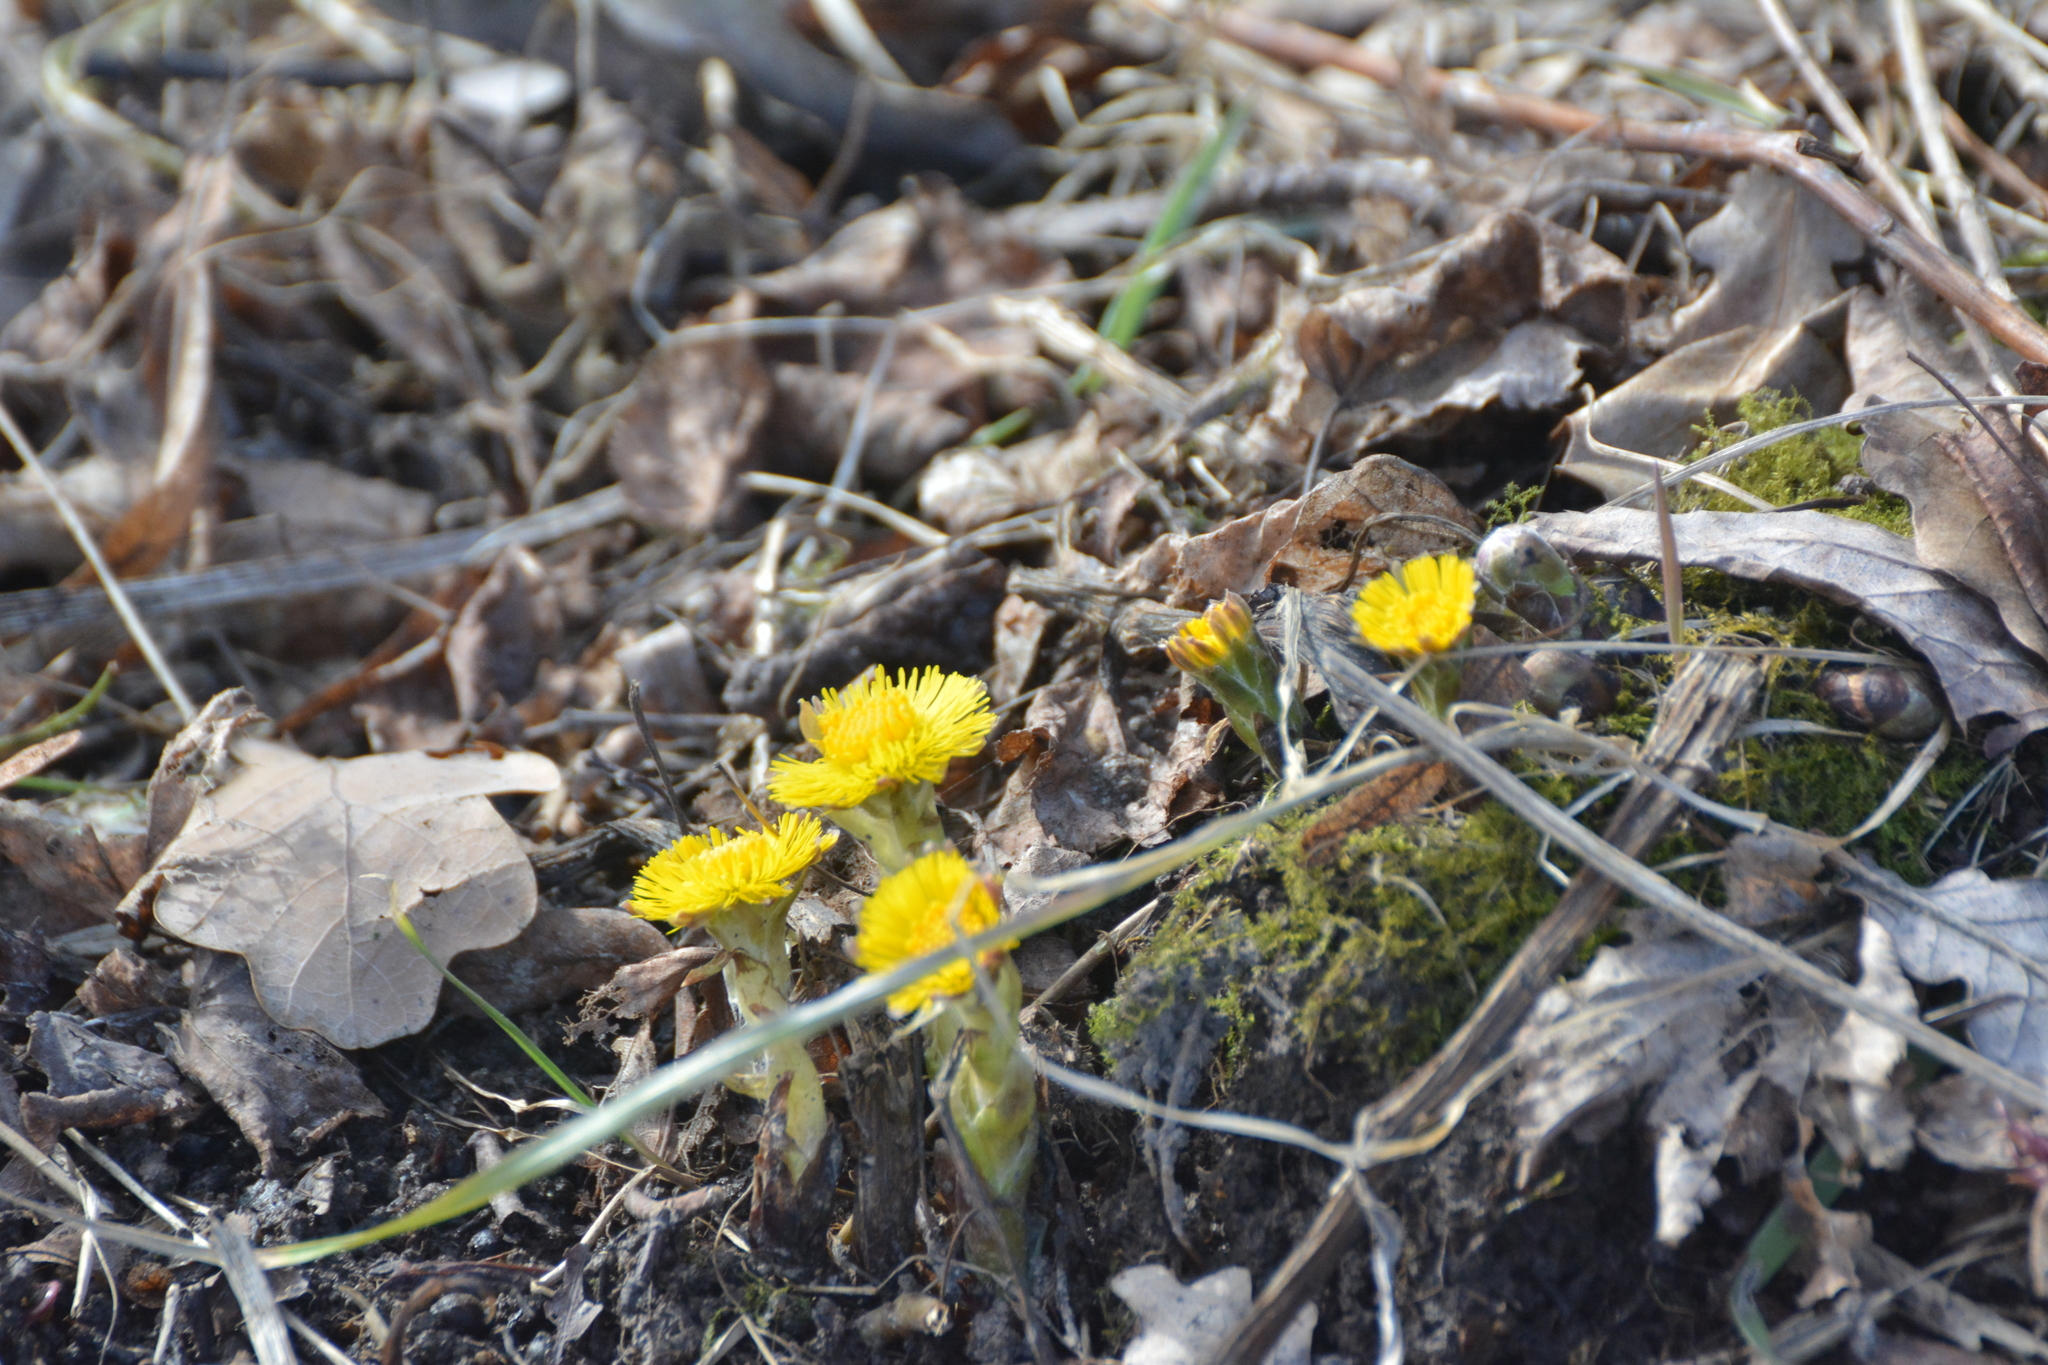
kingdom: Plantae
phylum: Tracheophyta
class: Magnoliopsida
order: Asterales
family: Asteraceae
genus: Tussilago
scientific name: Tussilago farfara
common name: Coltsfoot
